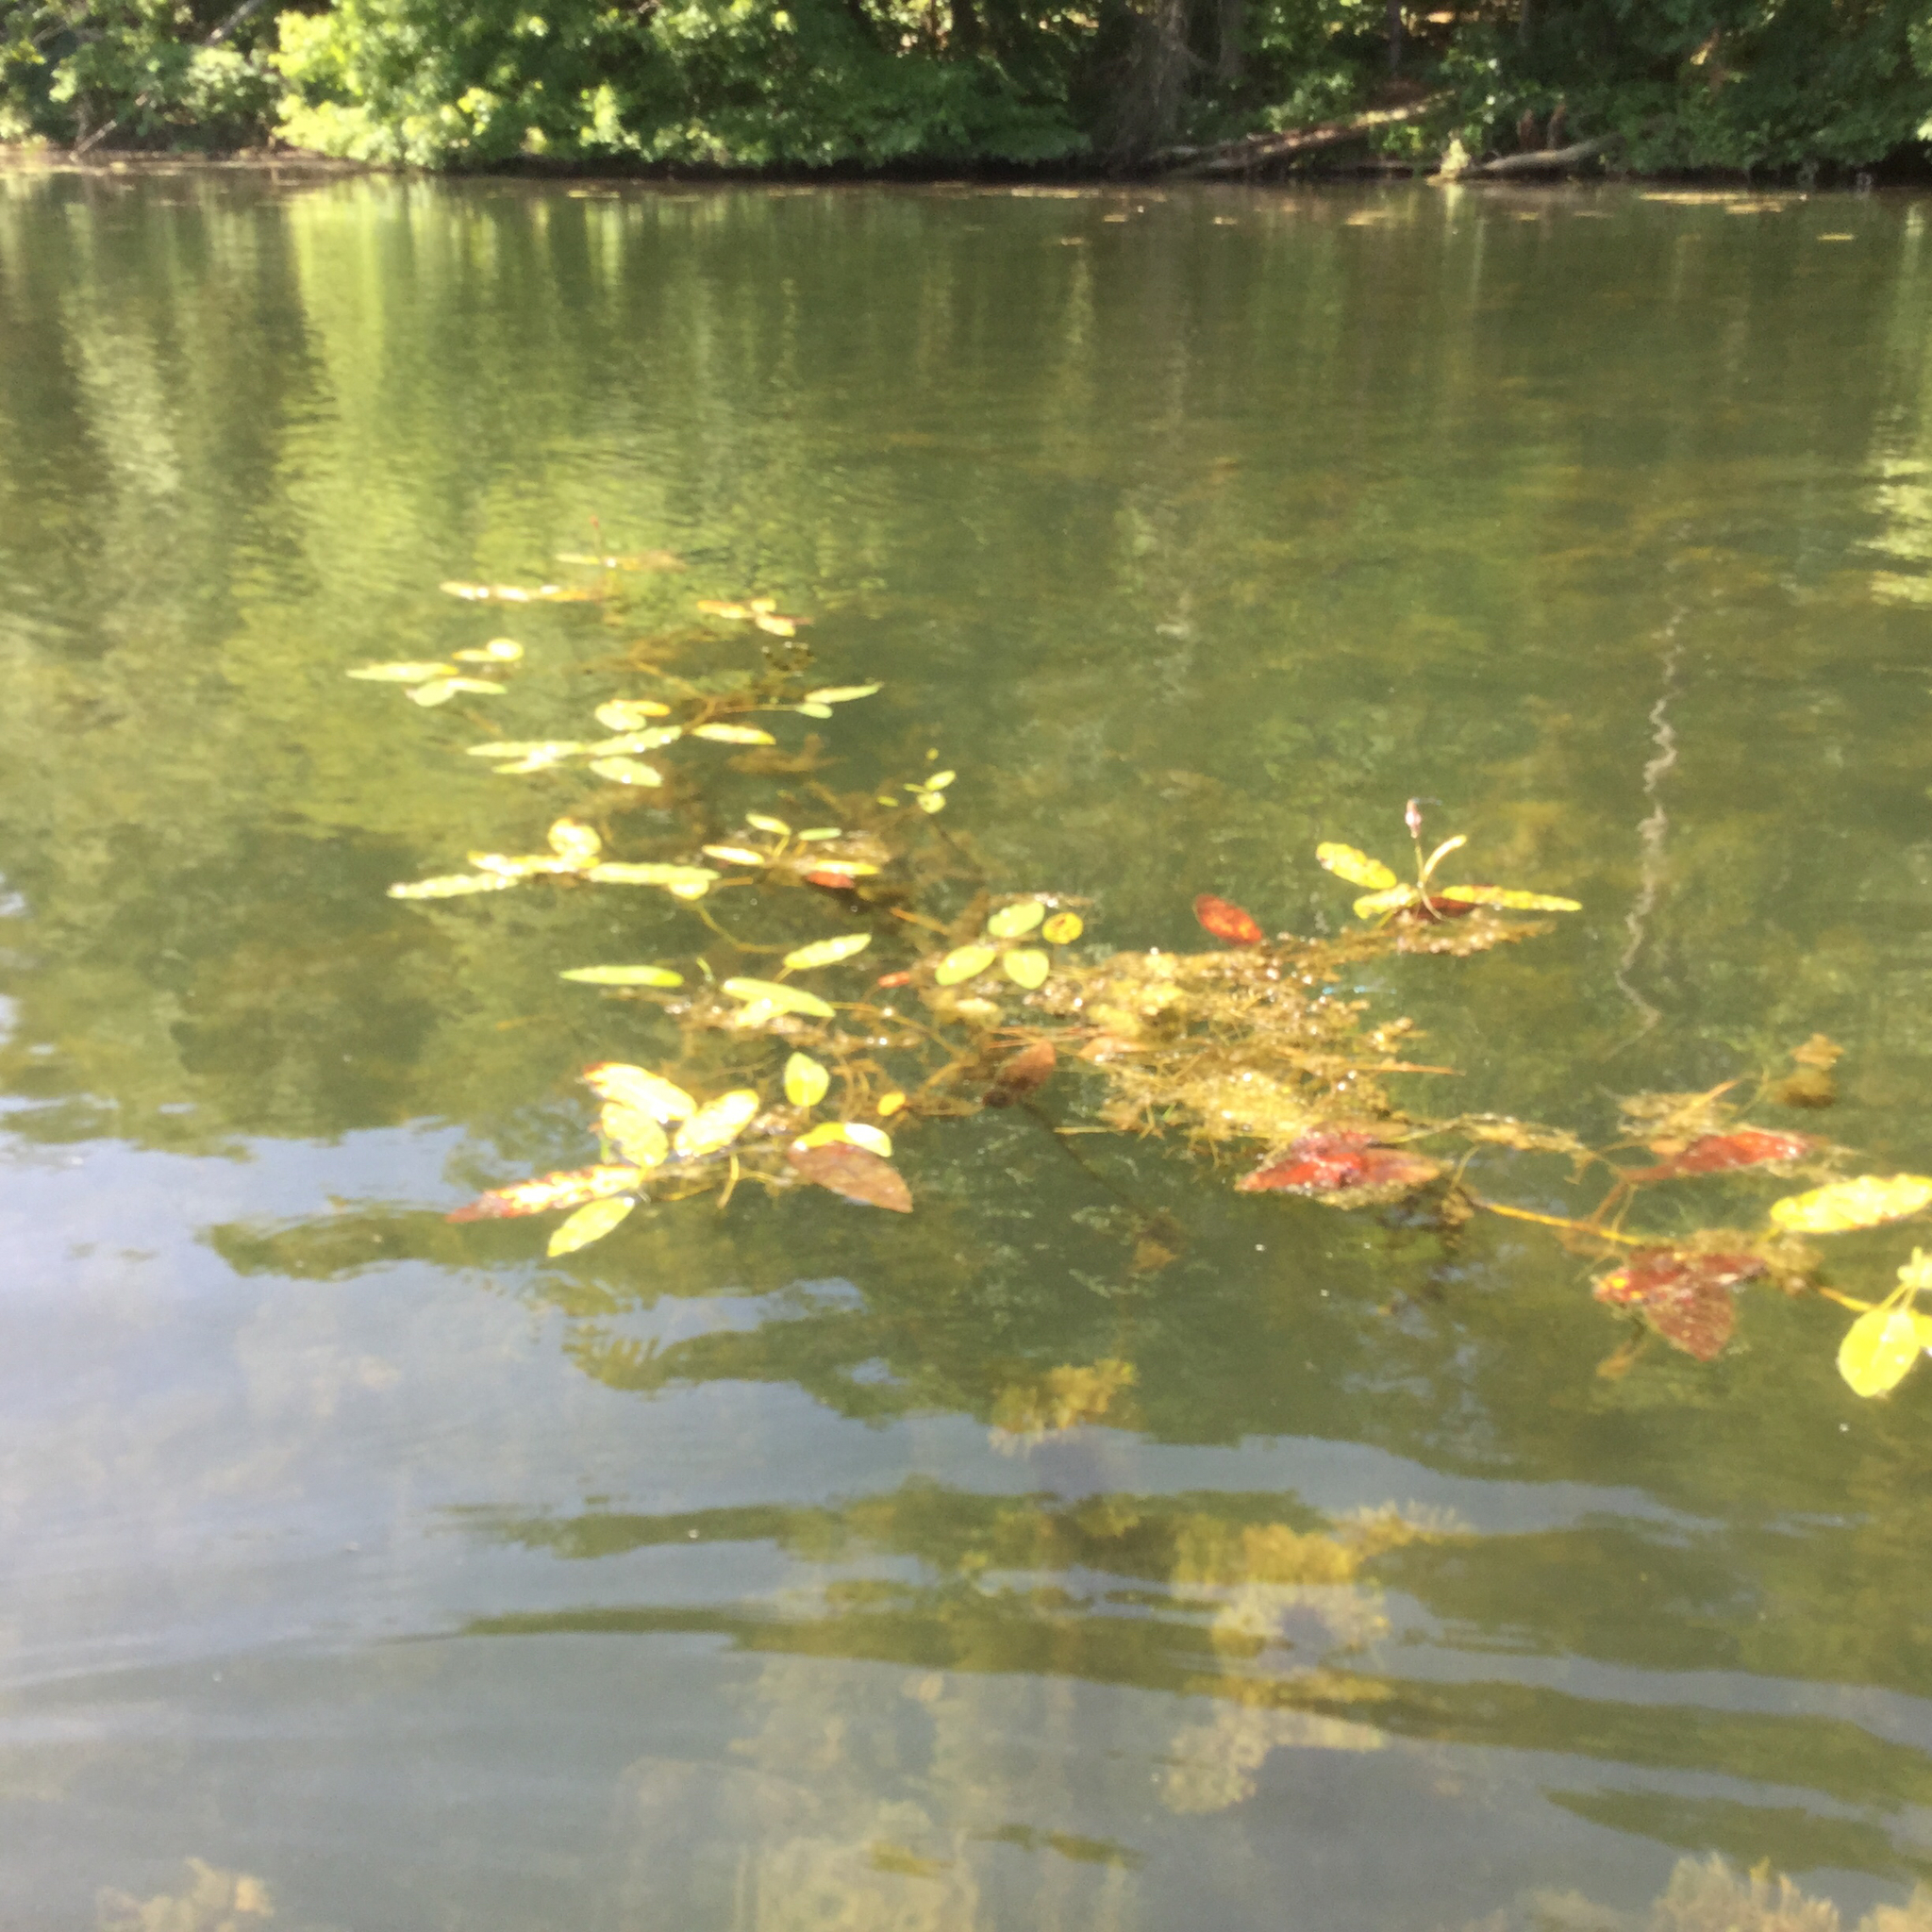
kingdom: Plantae
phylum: Tracheophyta
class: Magnoliopsida
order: Caryophyllales
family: Polygonaceae
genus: Persicaria
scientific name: Persicaria amphibia
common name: Amphibious bistort
